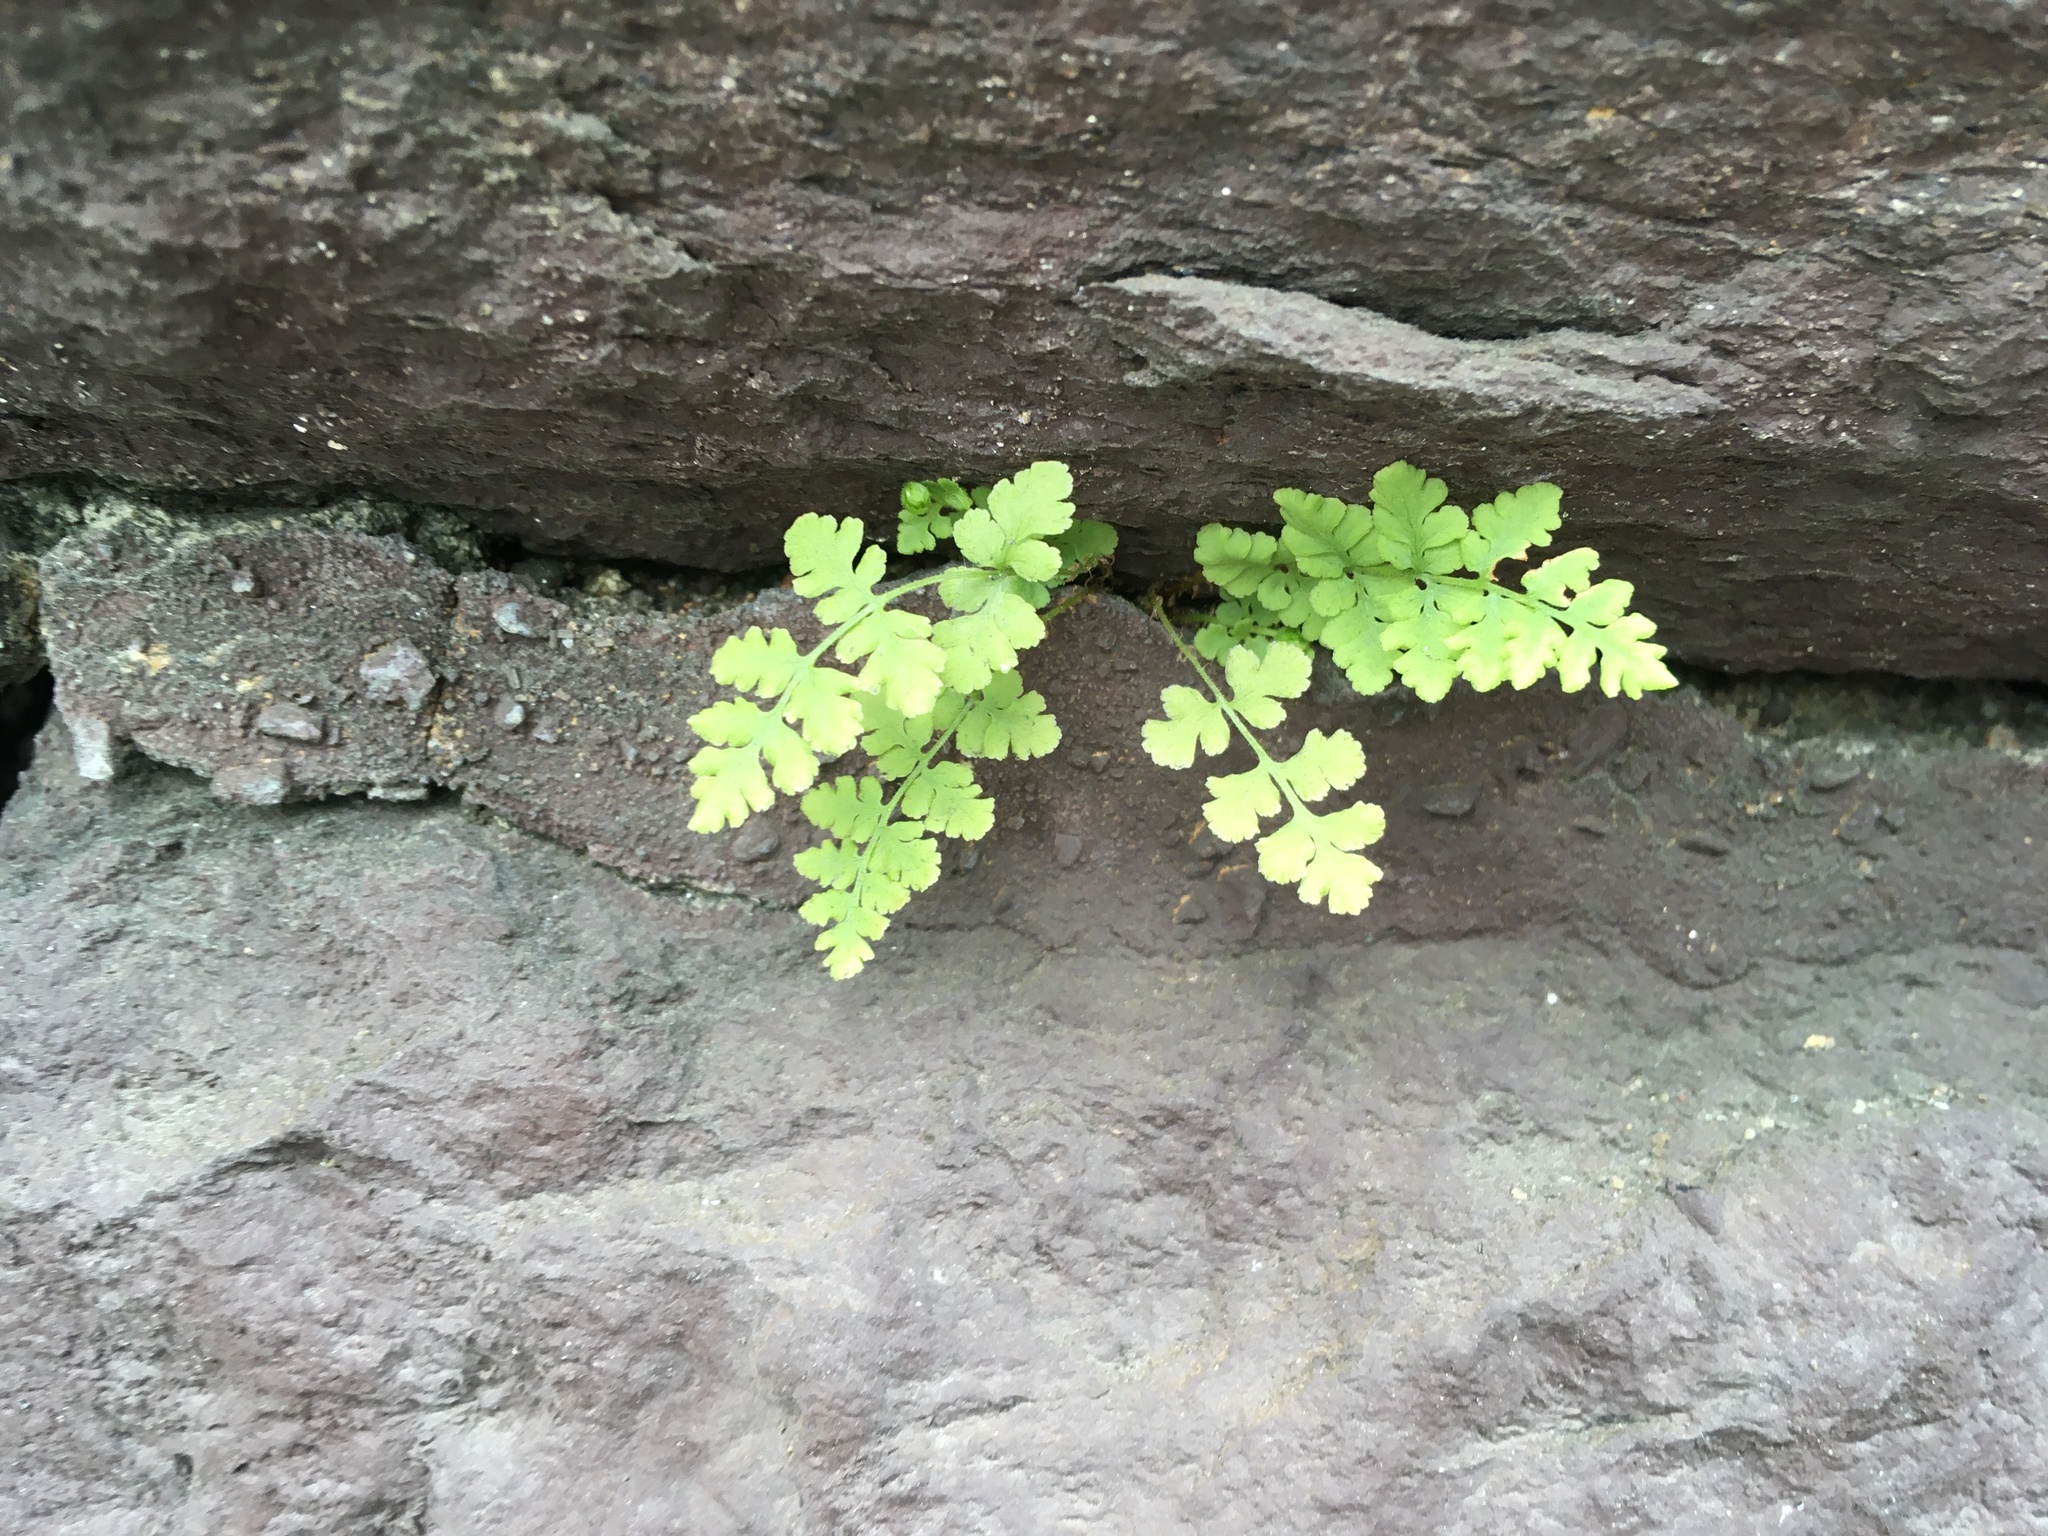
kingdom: Plantae
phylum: Tracheophyta
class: Polypodiopsida
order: Polypodiales
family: Woodsiaceae
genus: Physematium
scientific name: Physematium obtusum
